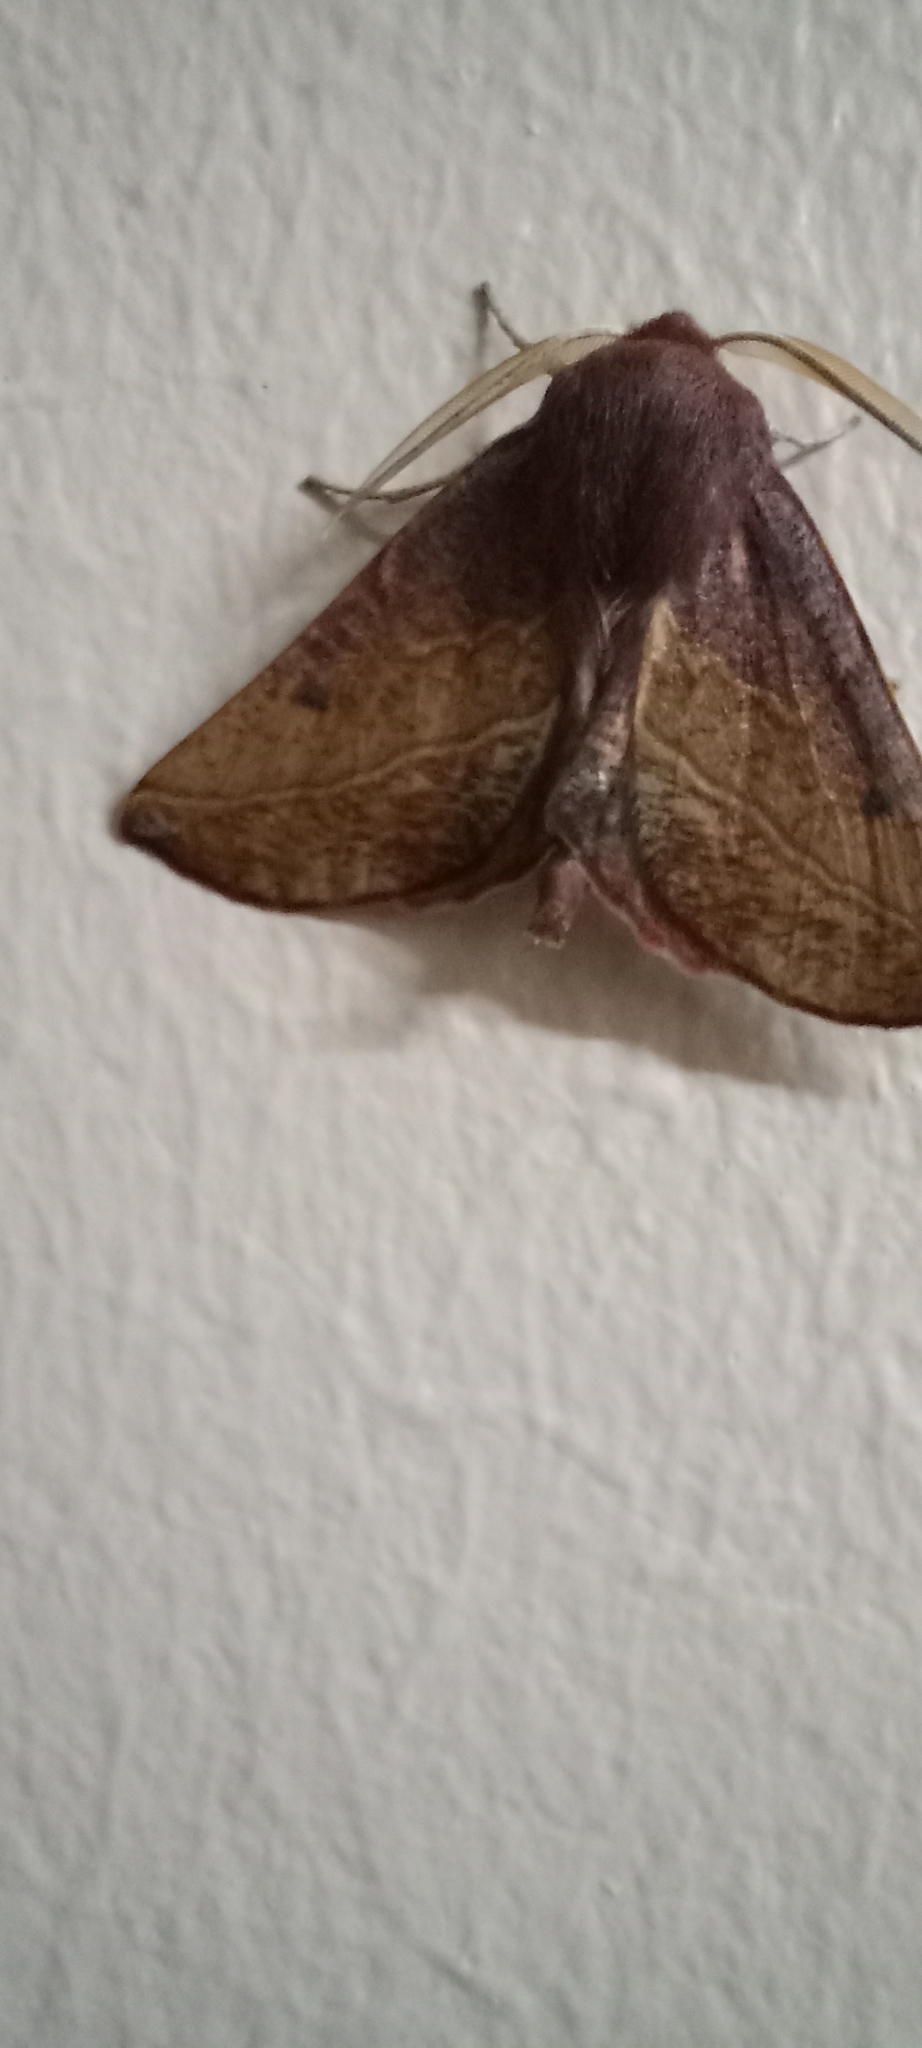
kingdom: Animalia
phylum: Arthropoda
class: Insecta
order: Lepidoptera
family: Geometridae
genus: Derrioides
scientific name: Derrioides villaria
